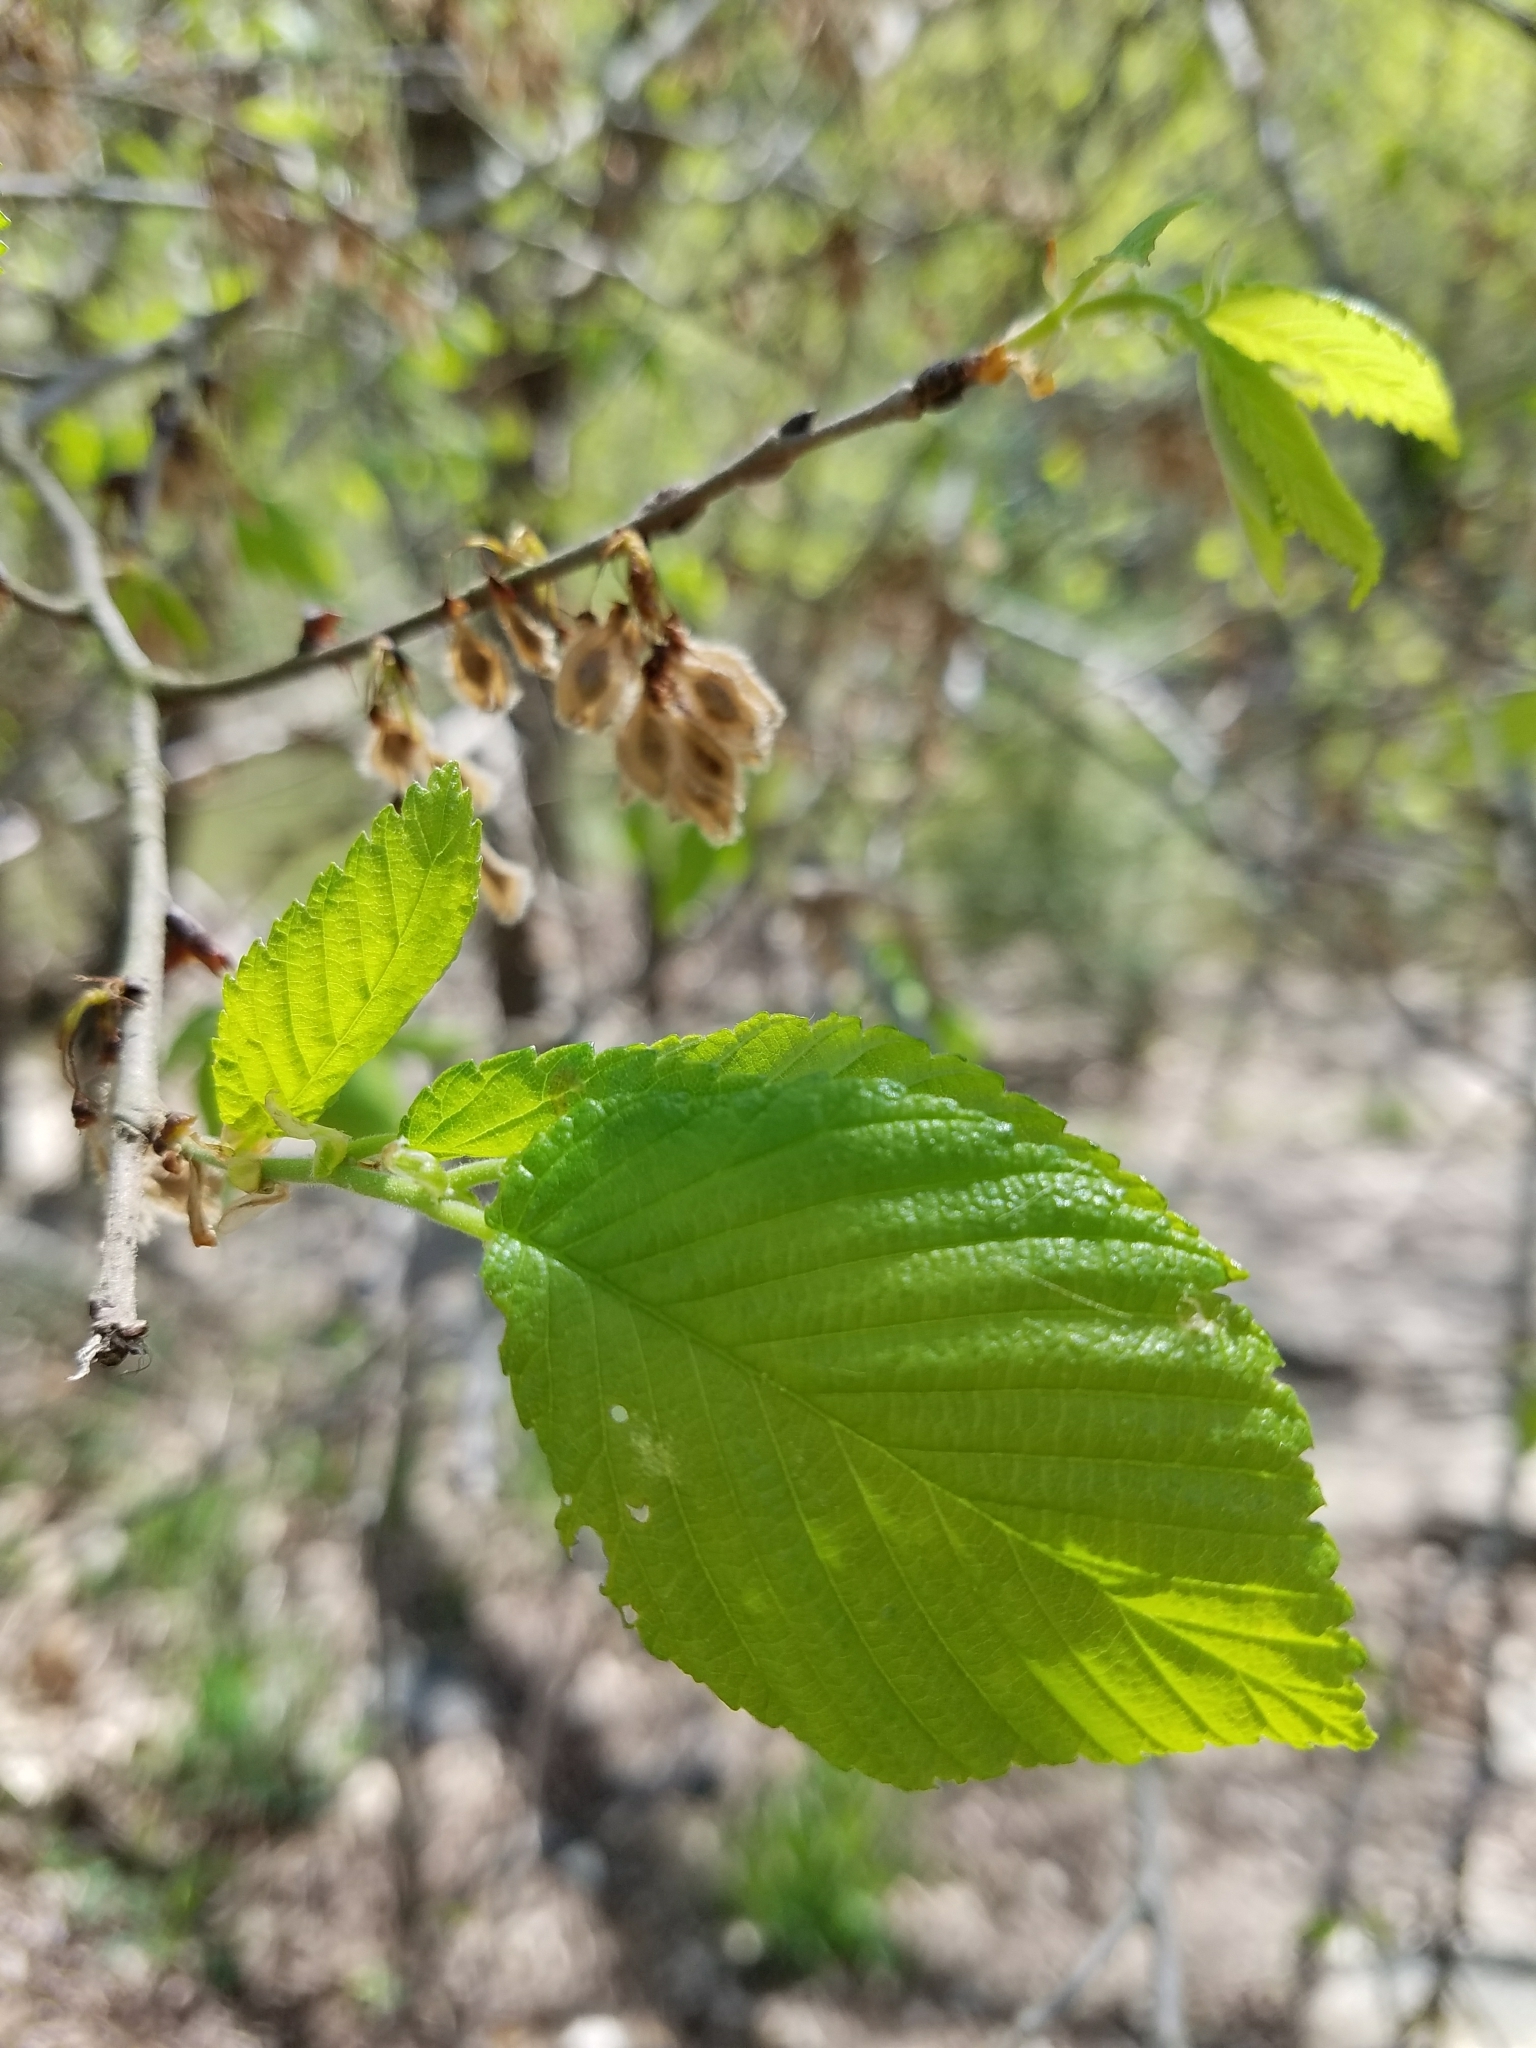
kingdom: Plantae
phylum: Tracheophyta
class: Magnoliopsida
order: Rosales
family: Ulmaceae
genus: Ulmus
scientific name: Ulmus americana
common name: American elm
